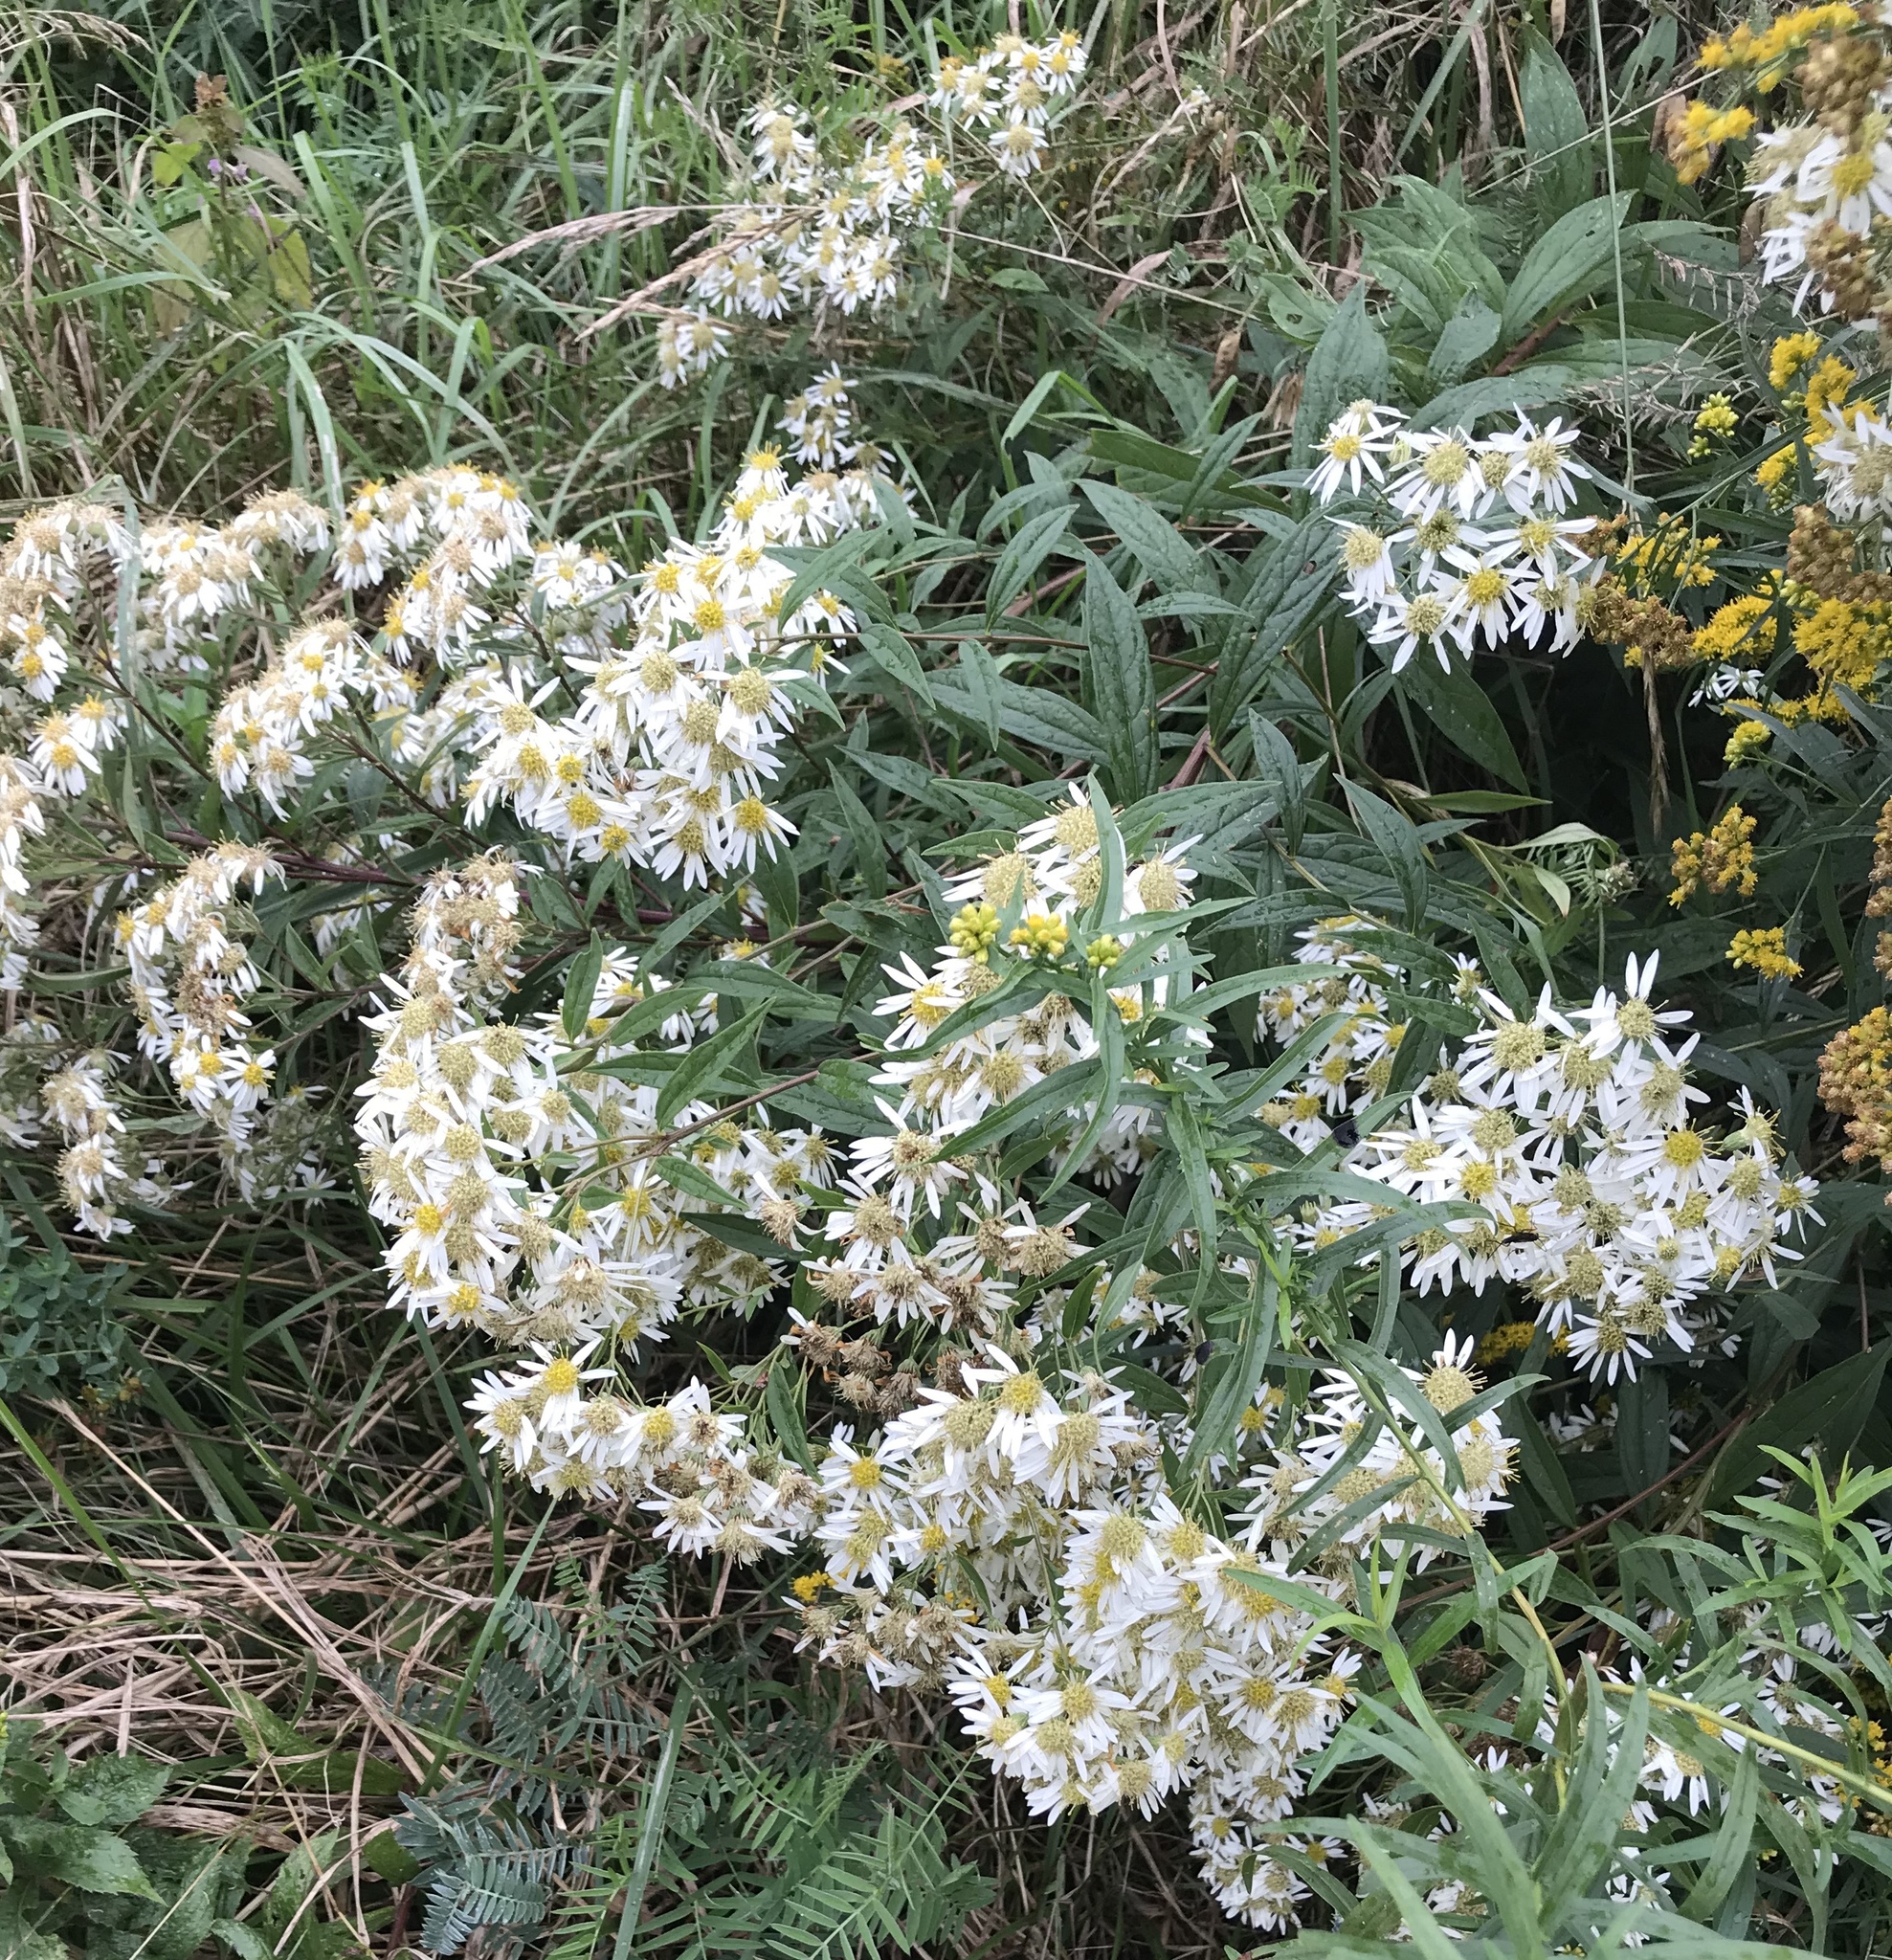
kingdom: Plantae
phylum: Tracheophyta
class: Magnoliopsida
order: Asterales
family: Asteraceae
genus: Doellingeria
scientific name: Doellingeria umbellata
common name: Flat-top white aster
